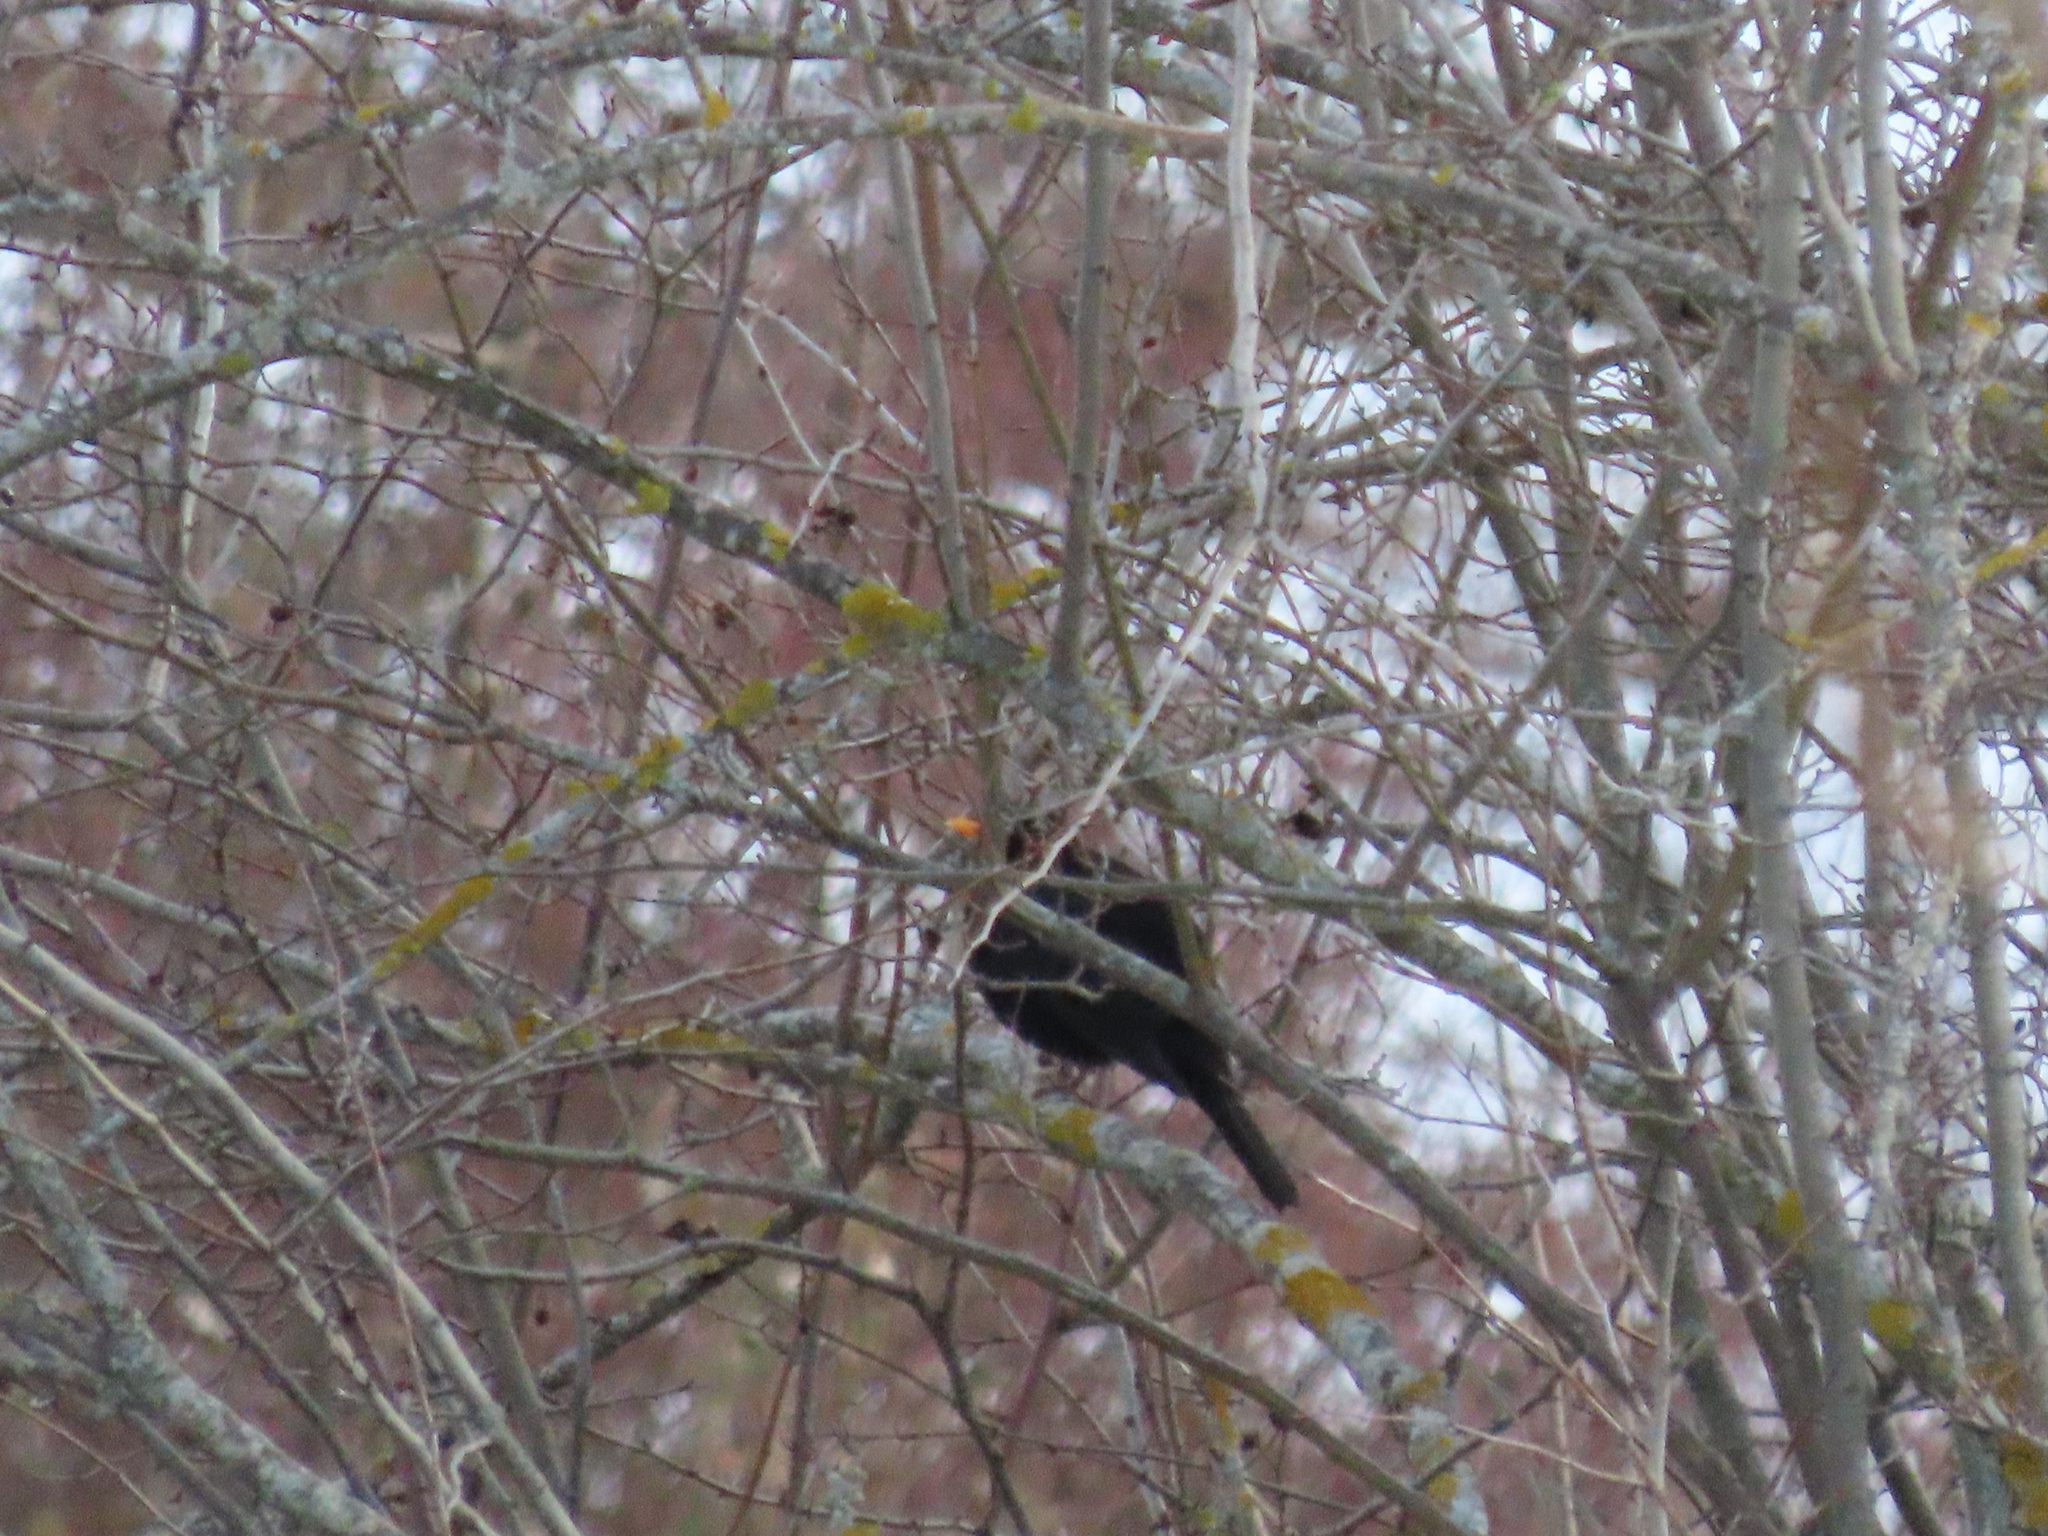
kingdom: Animalia
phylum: Chordata
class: Aves
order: Passeriformes
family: Turdidae
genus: Turdus
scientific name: Turdus merula
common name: Common blackbird
